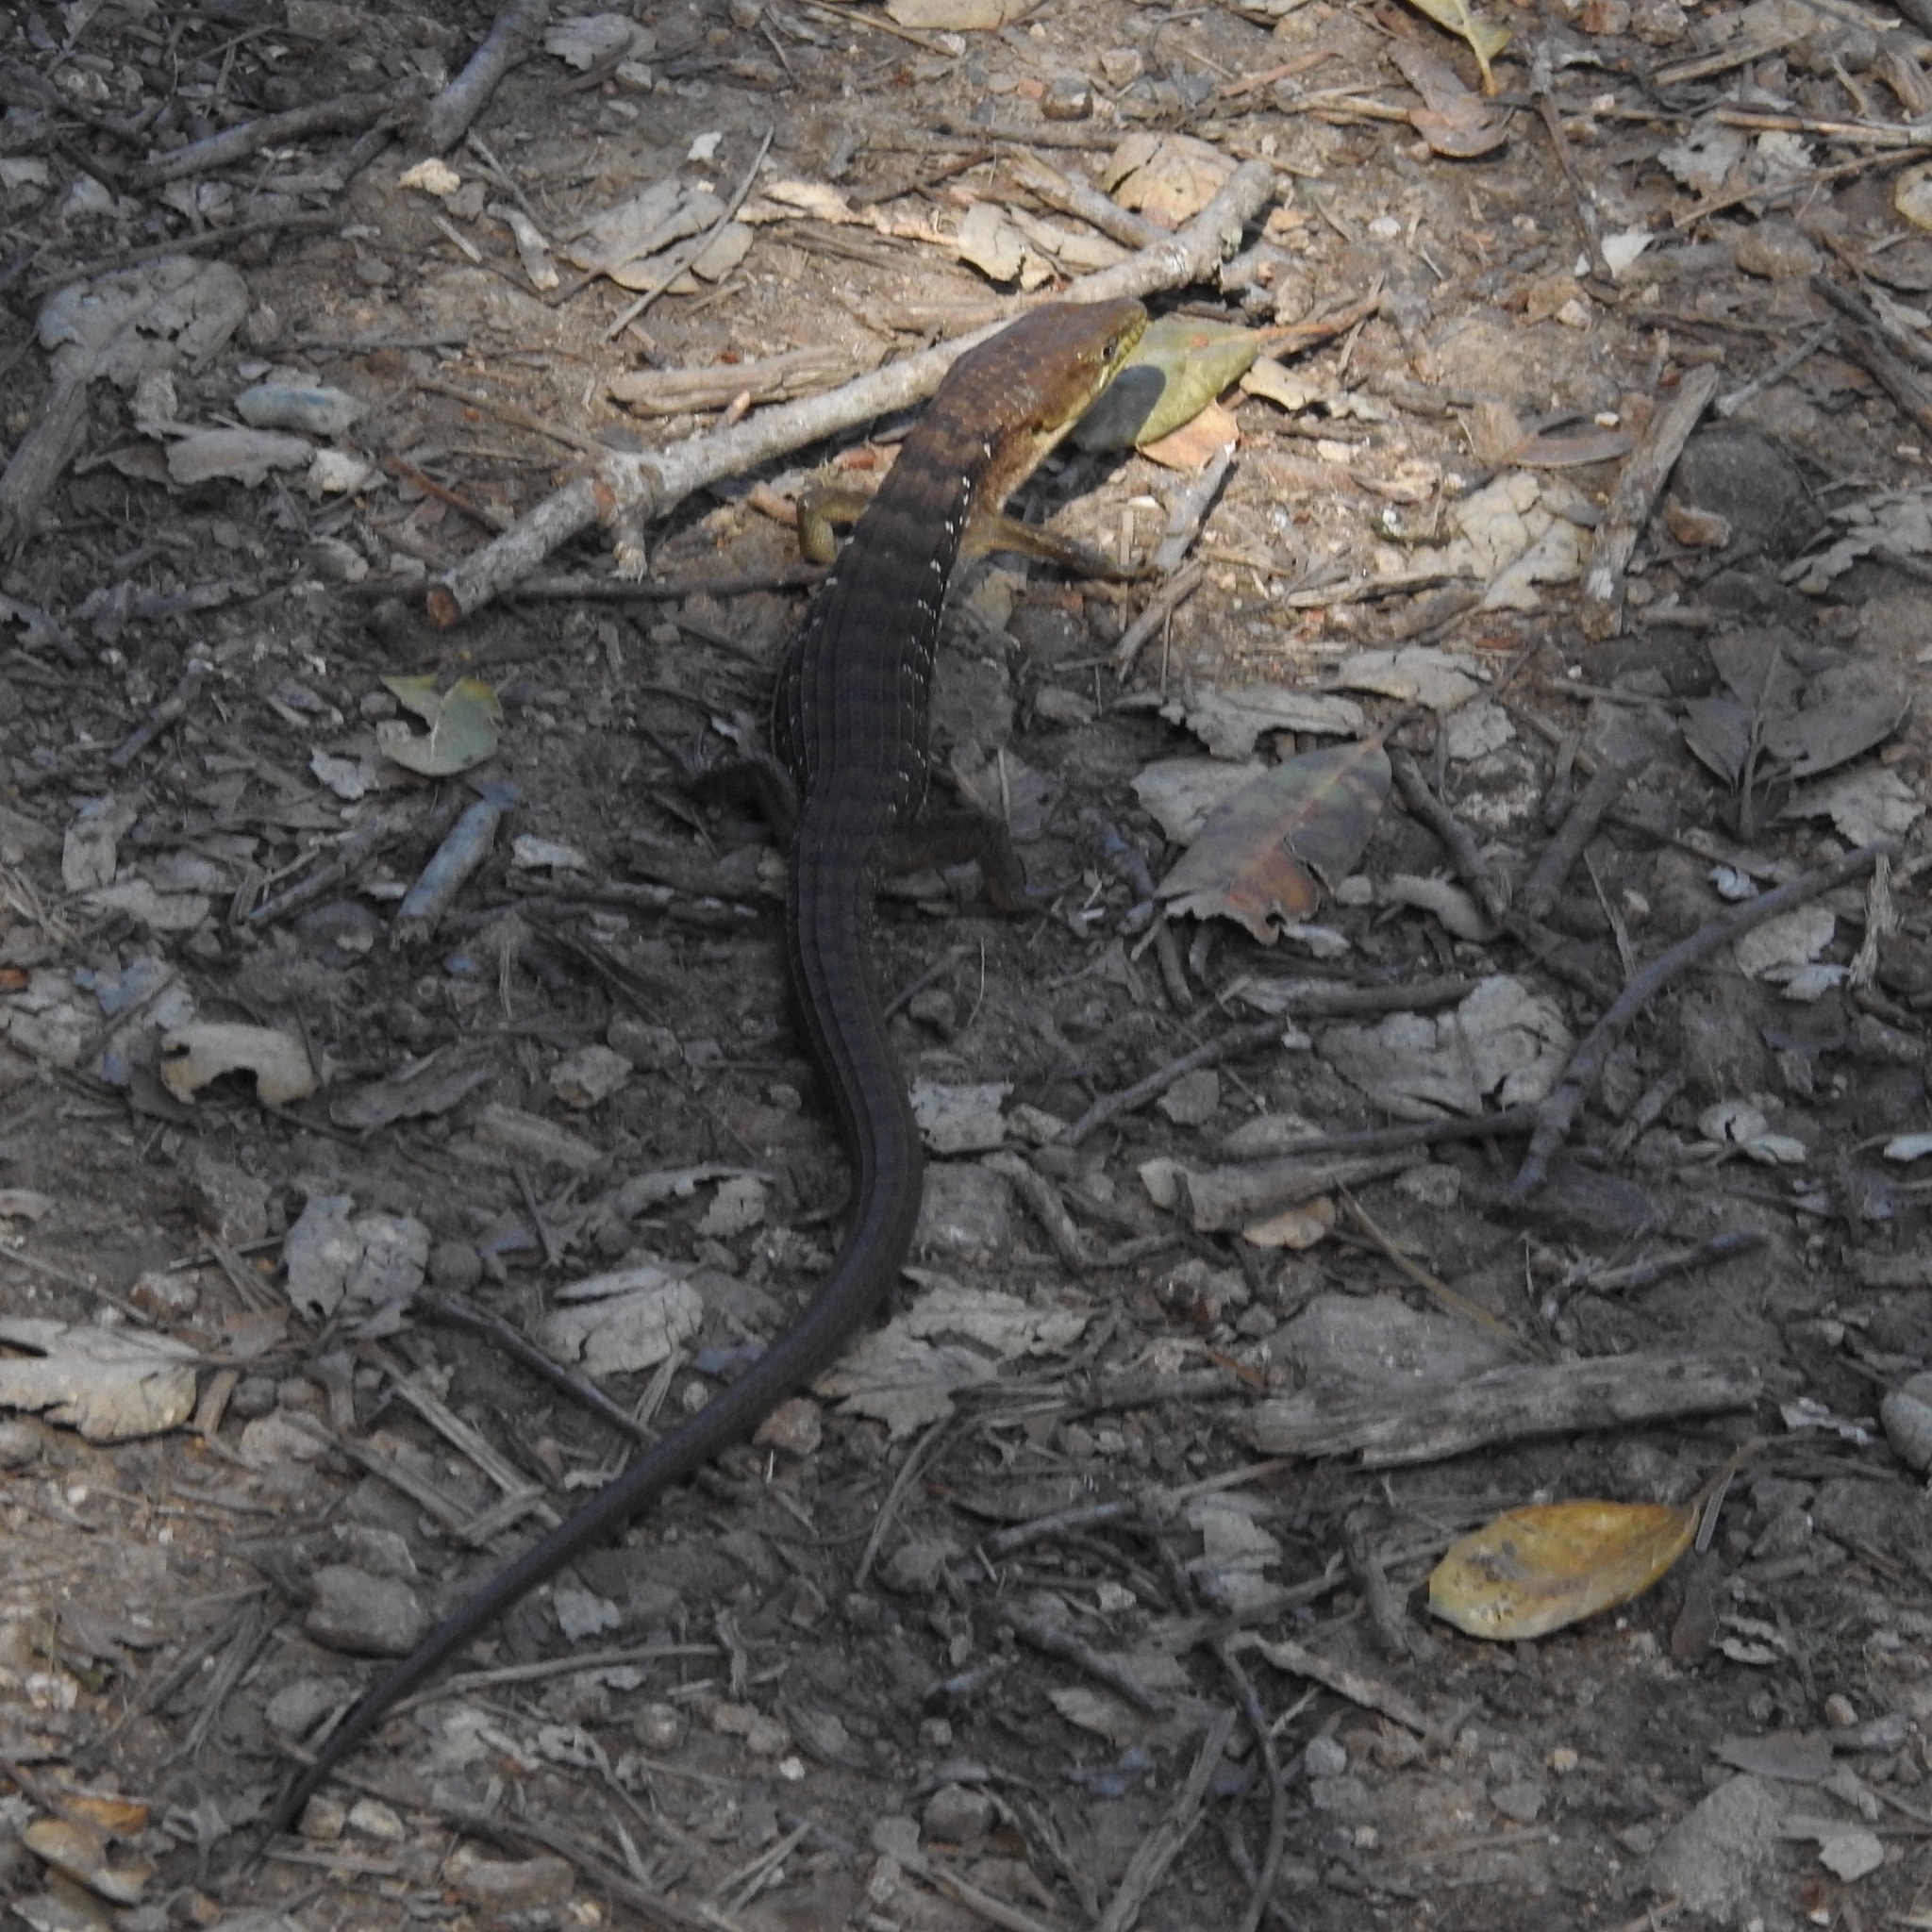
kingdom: Animalia
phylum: Chordata
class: Squamata
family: Anguidae
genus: Elgaria
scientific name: Elgaria multicarinata
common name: Southern alligator lizard
